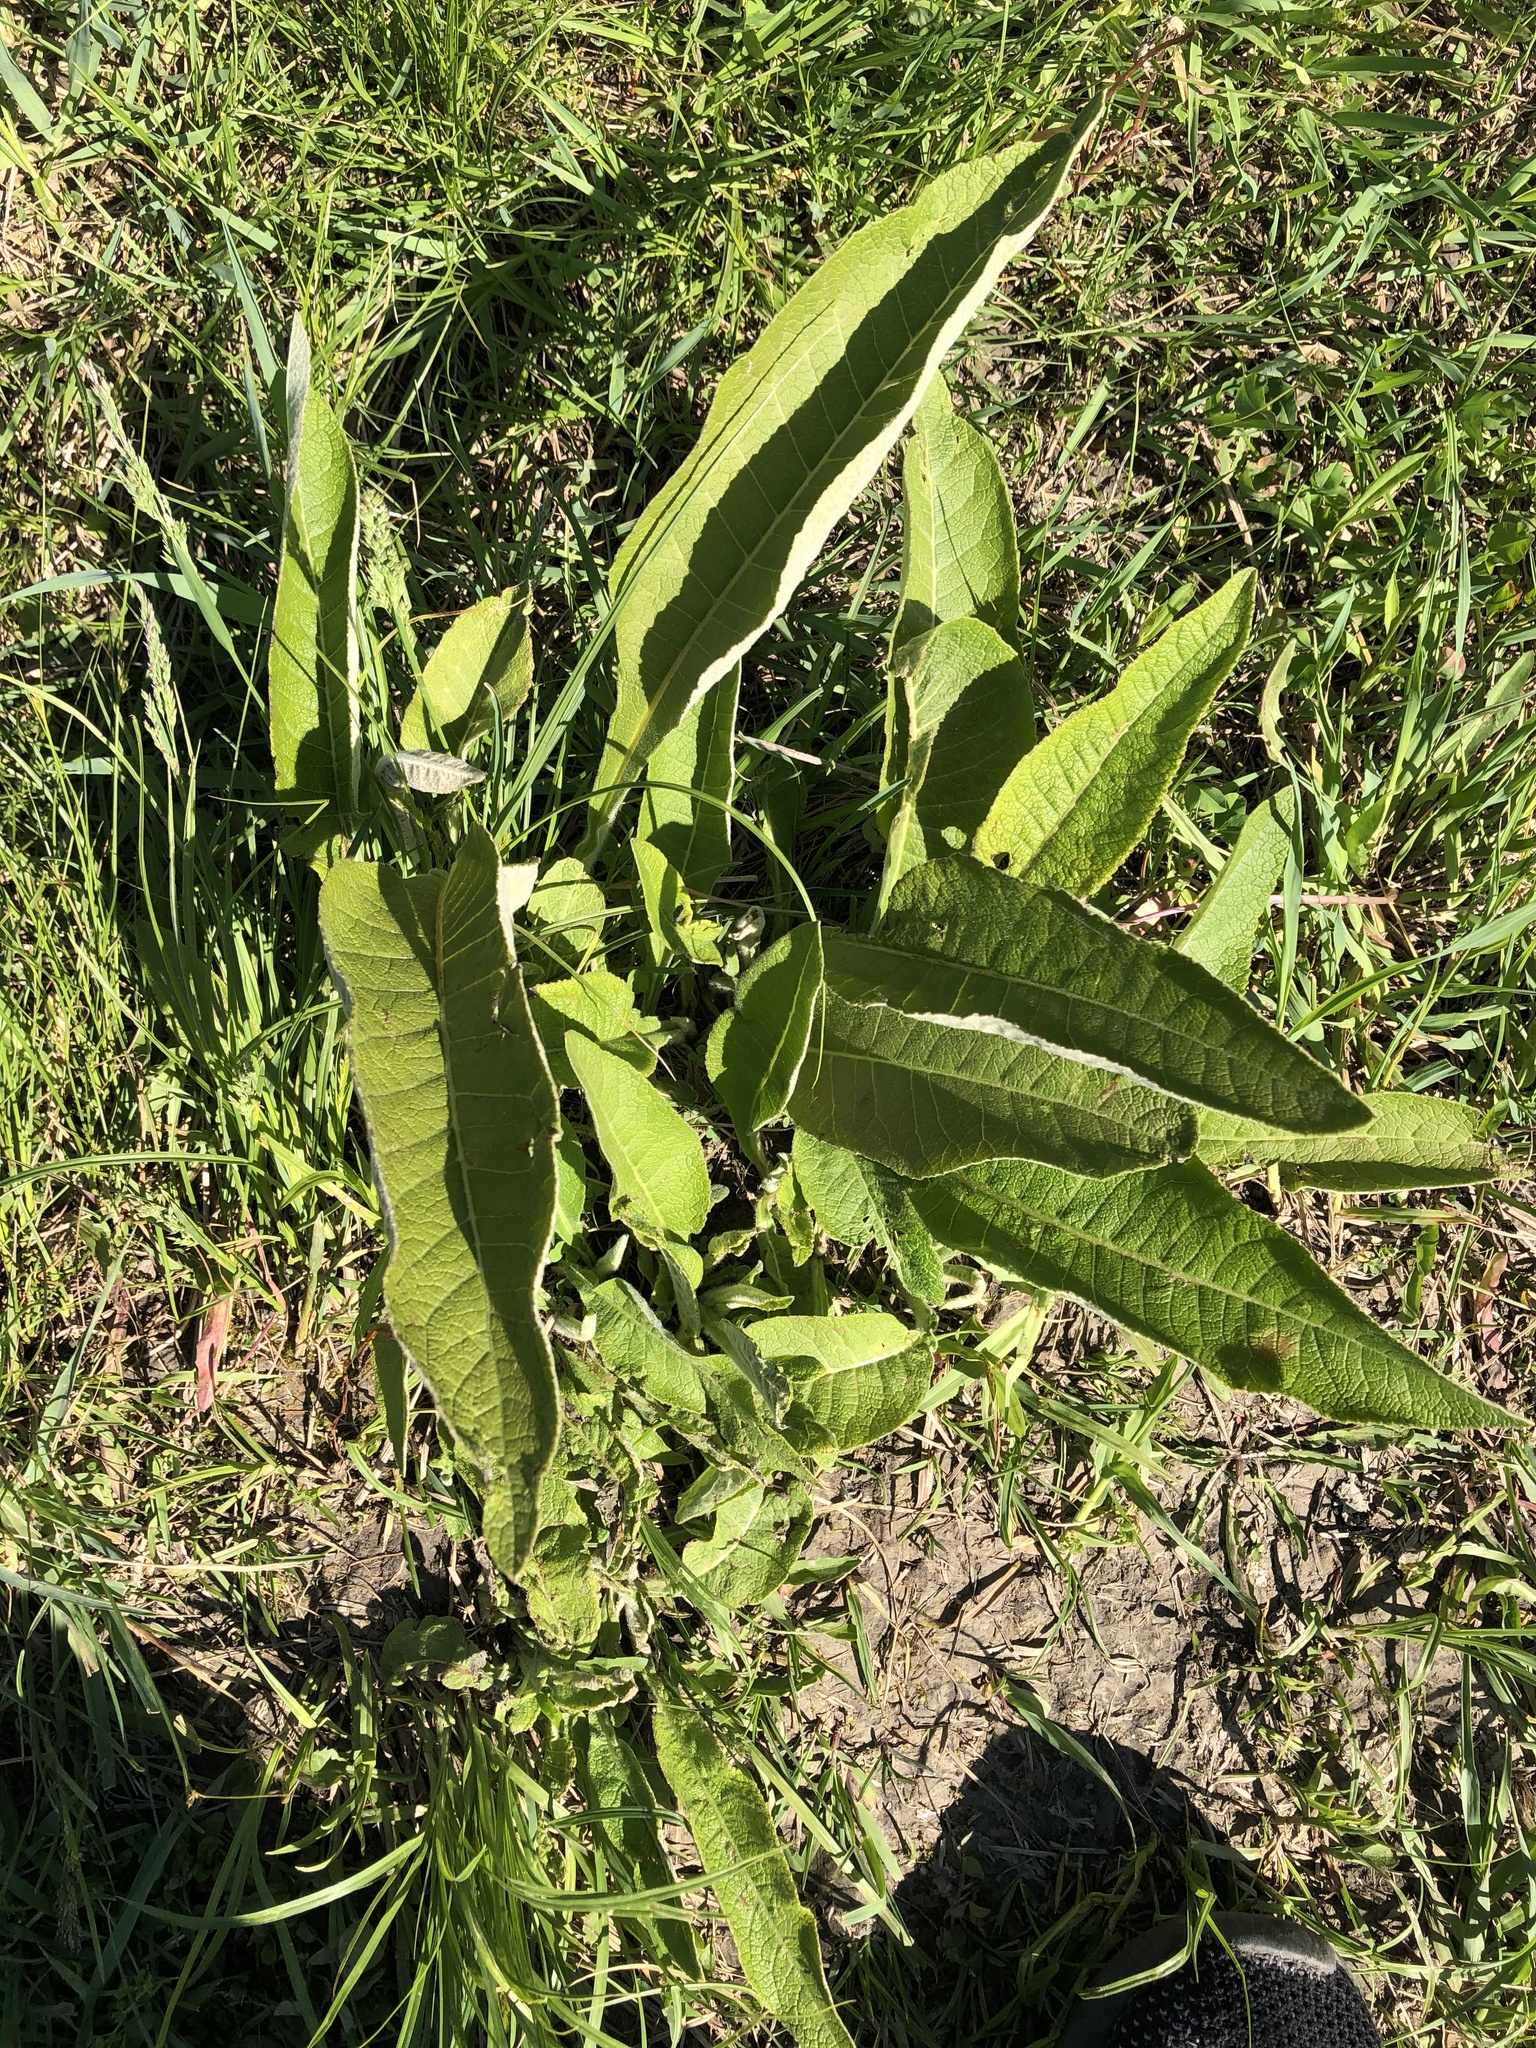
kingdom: Plantae
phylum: Tracheophyta
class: Magnoliopsida
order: Asterales
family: Asteraceae
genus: Inula
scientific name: Inula helenium
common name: Elecampane
